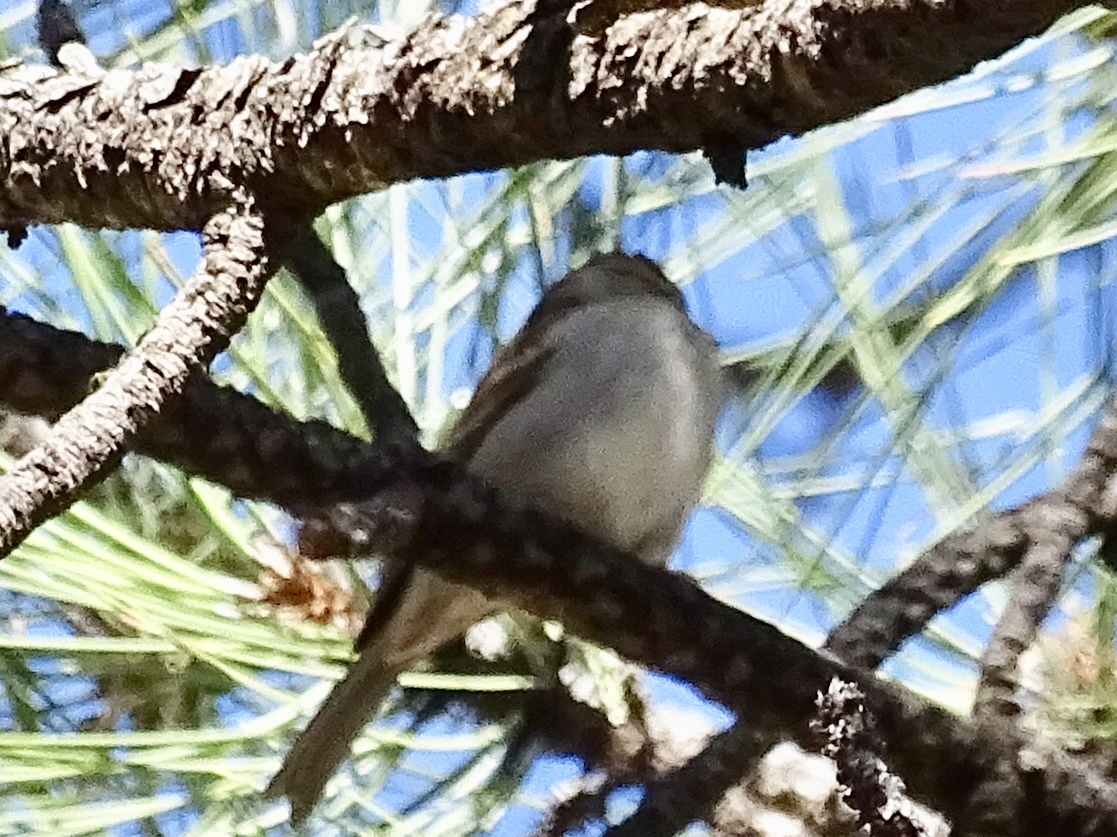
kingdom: Animalia
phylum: Chordata
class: Aves
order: Passeriformes
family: Passerellidae
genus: Spizella
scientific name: Spizella passerina
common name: Chipping sparrow
